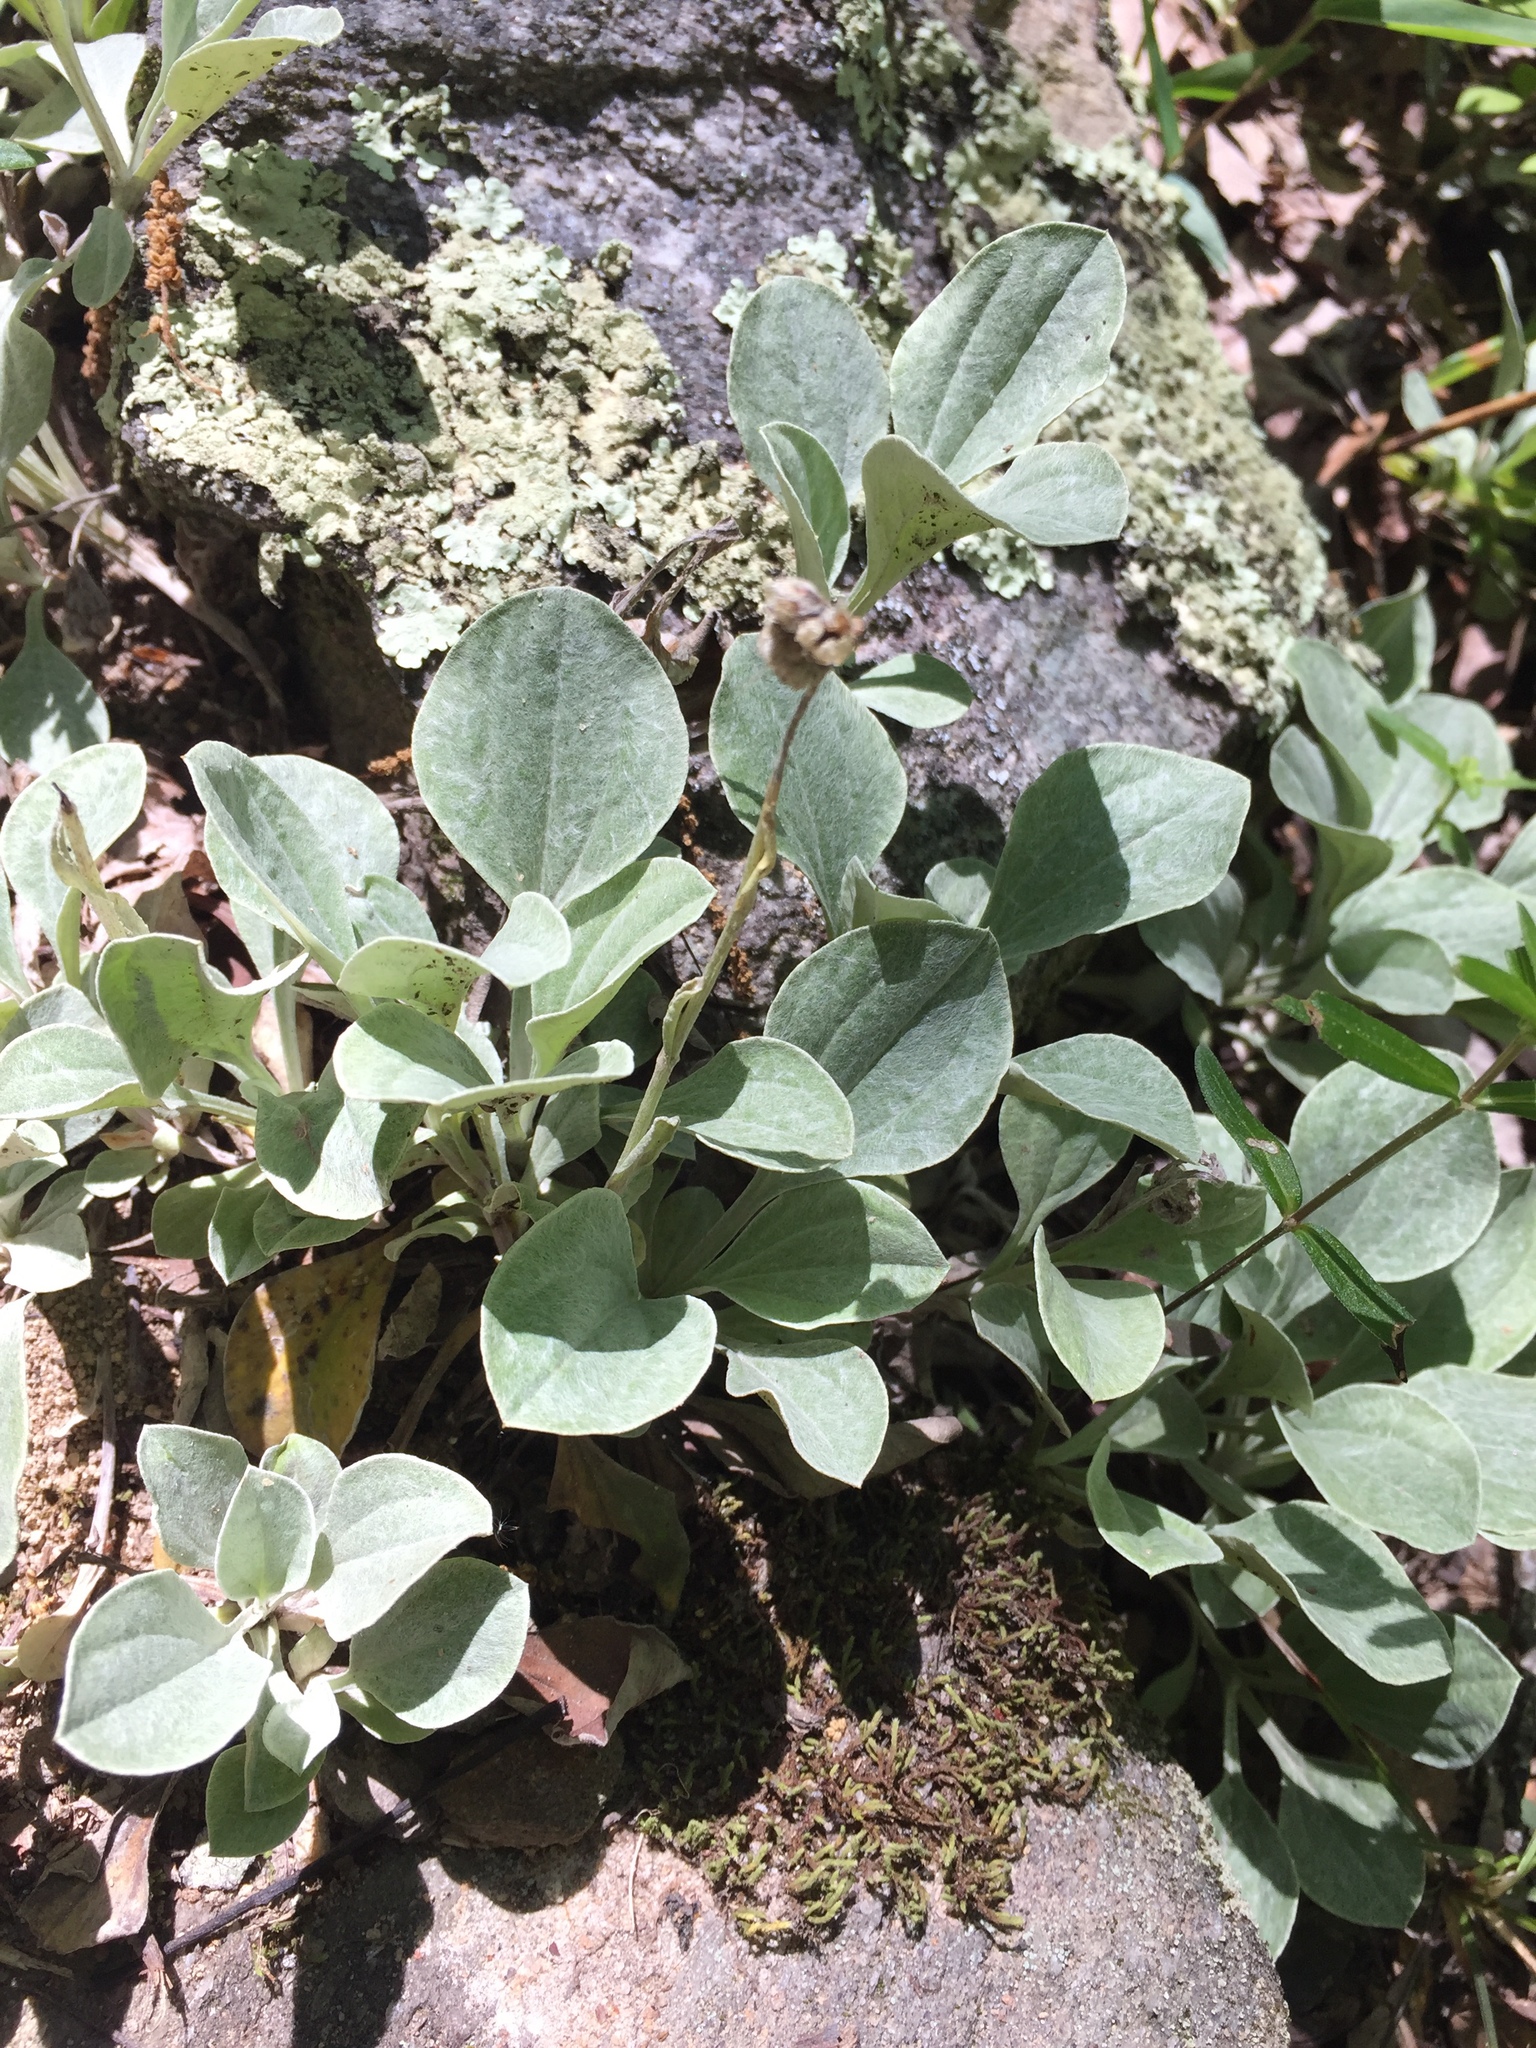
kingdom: Plantae
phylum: Tracheophyta
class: Magnoliopsida
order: Asterales
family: Asteraceae
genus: Antennaria
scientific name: Antennaria plantaginifolia
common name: Plantain-leaved pussytoes
